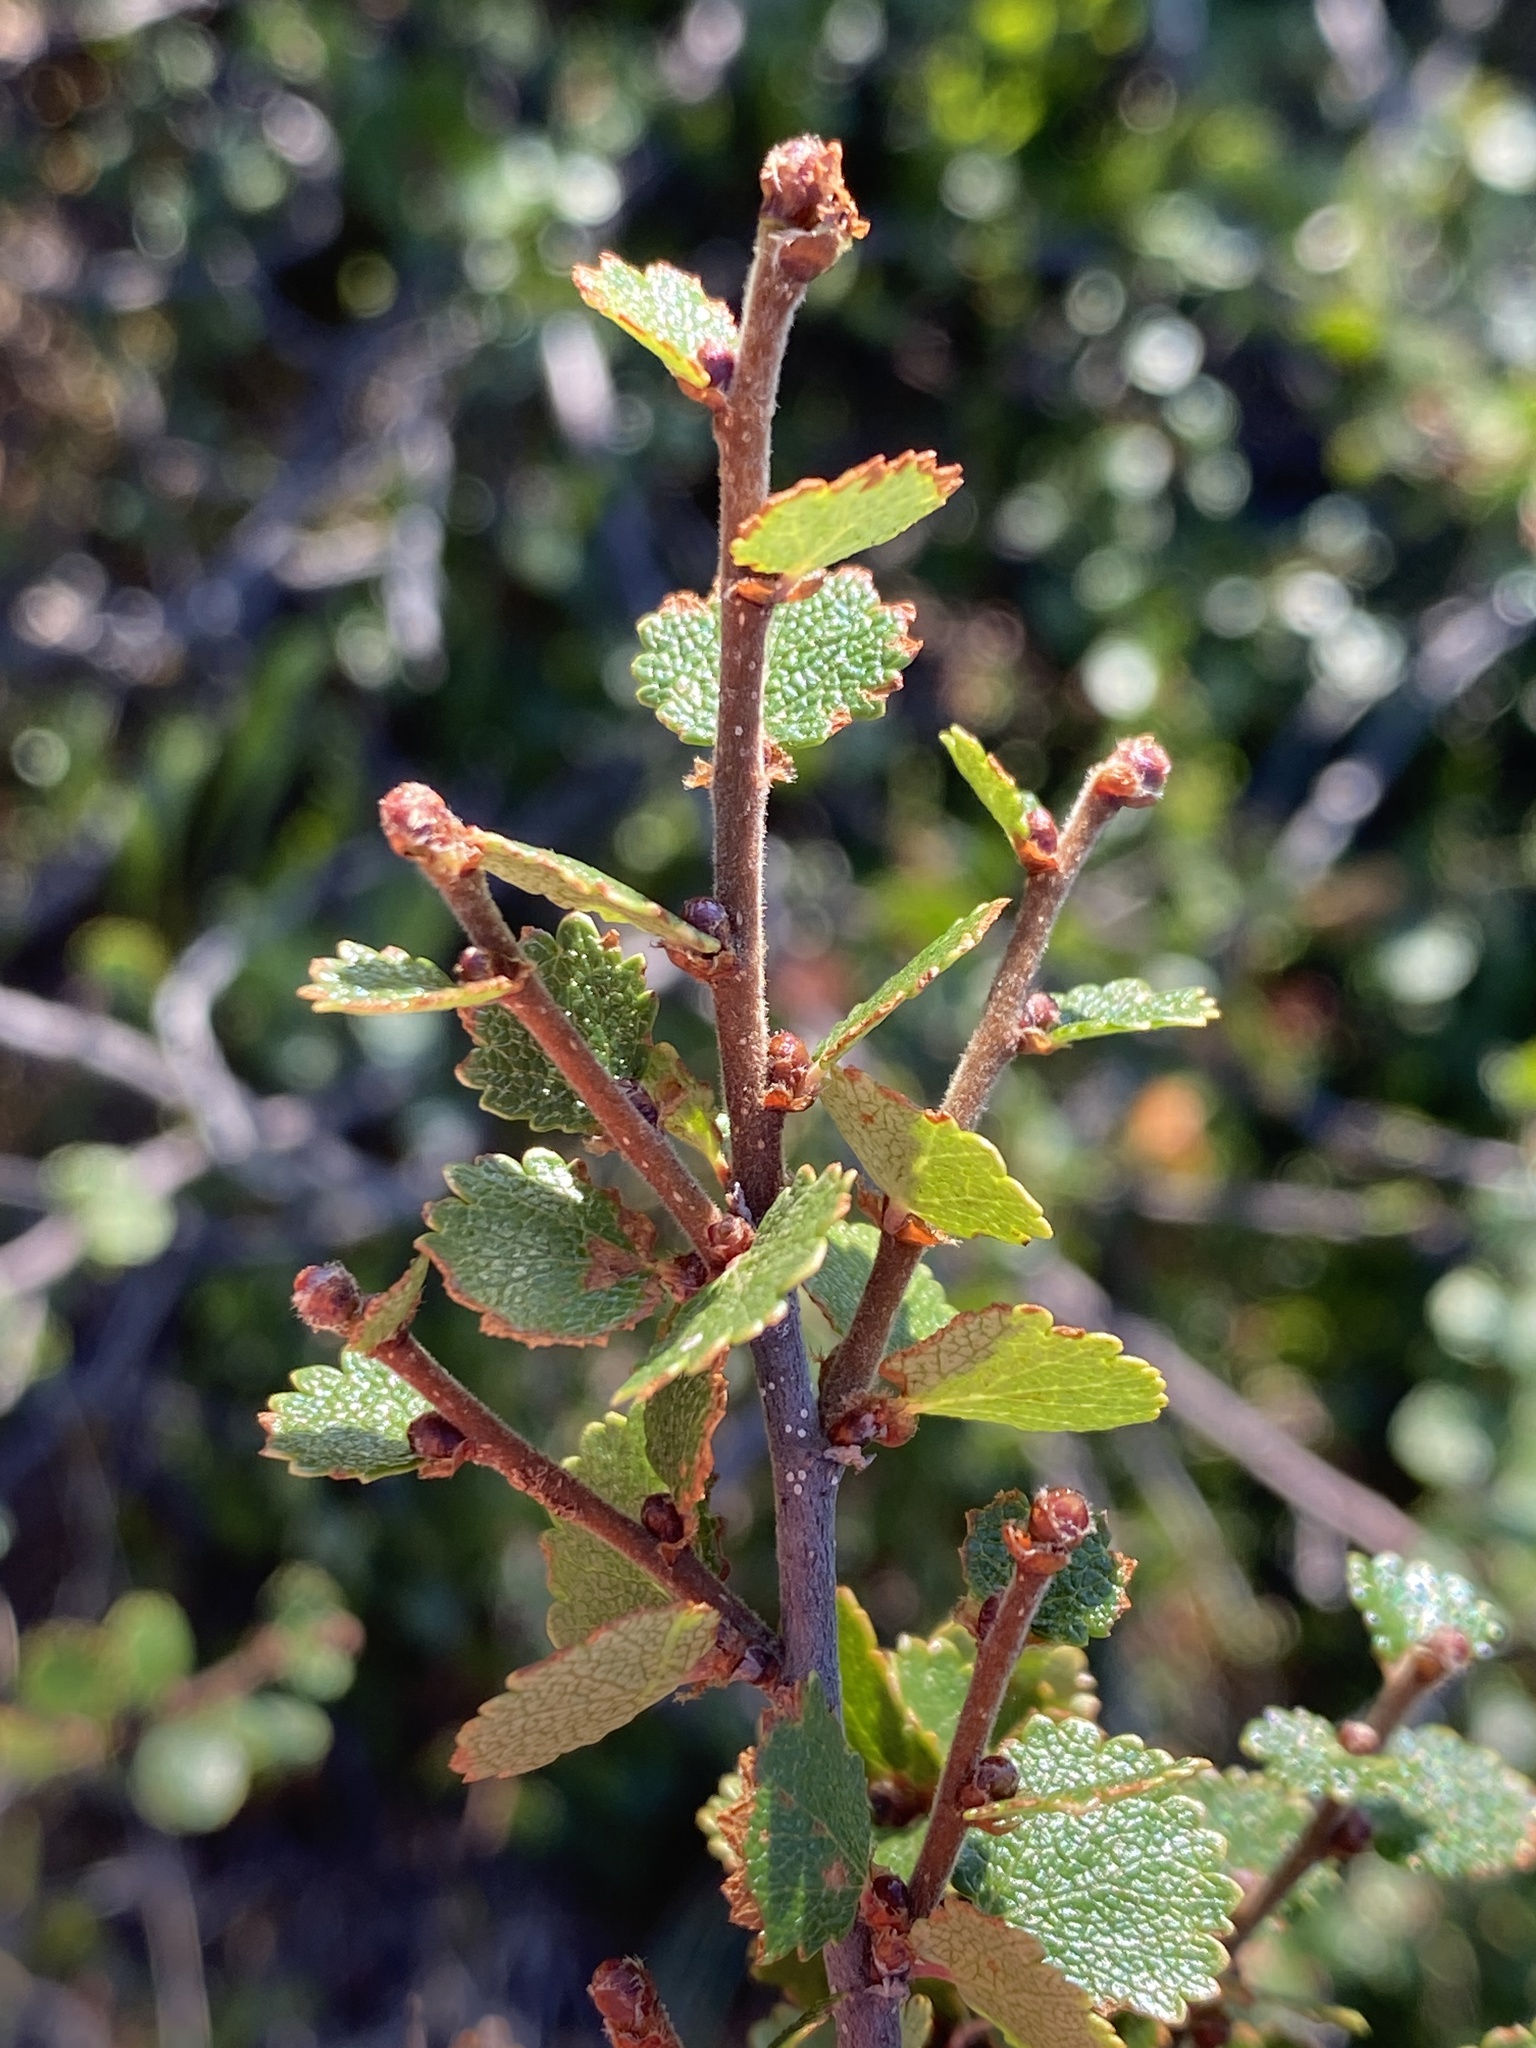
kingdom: Plantae
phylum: Tracheophyta
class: Magnoliopsida
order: Fagales
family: Betulaceae
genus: Betula
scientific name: Betula nana
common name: Arctic dwarf birch
